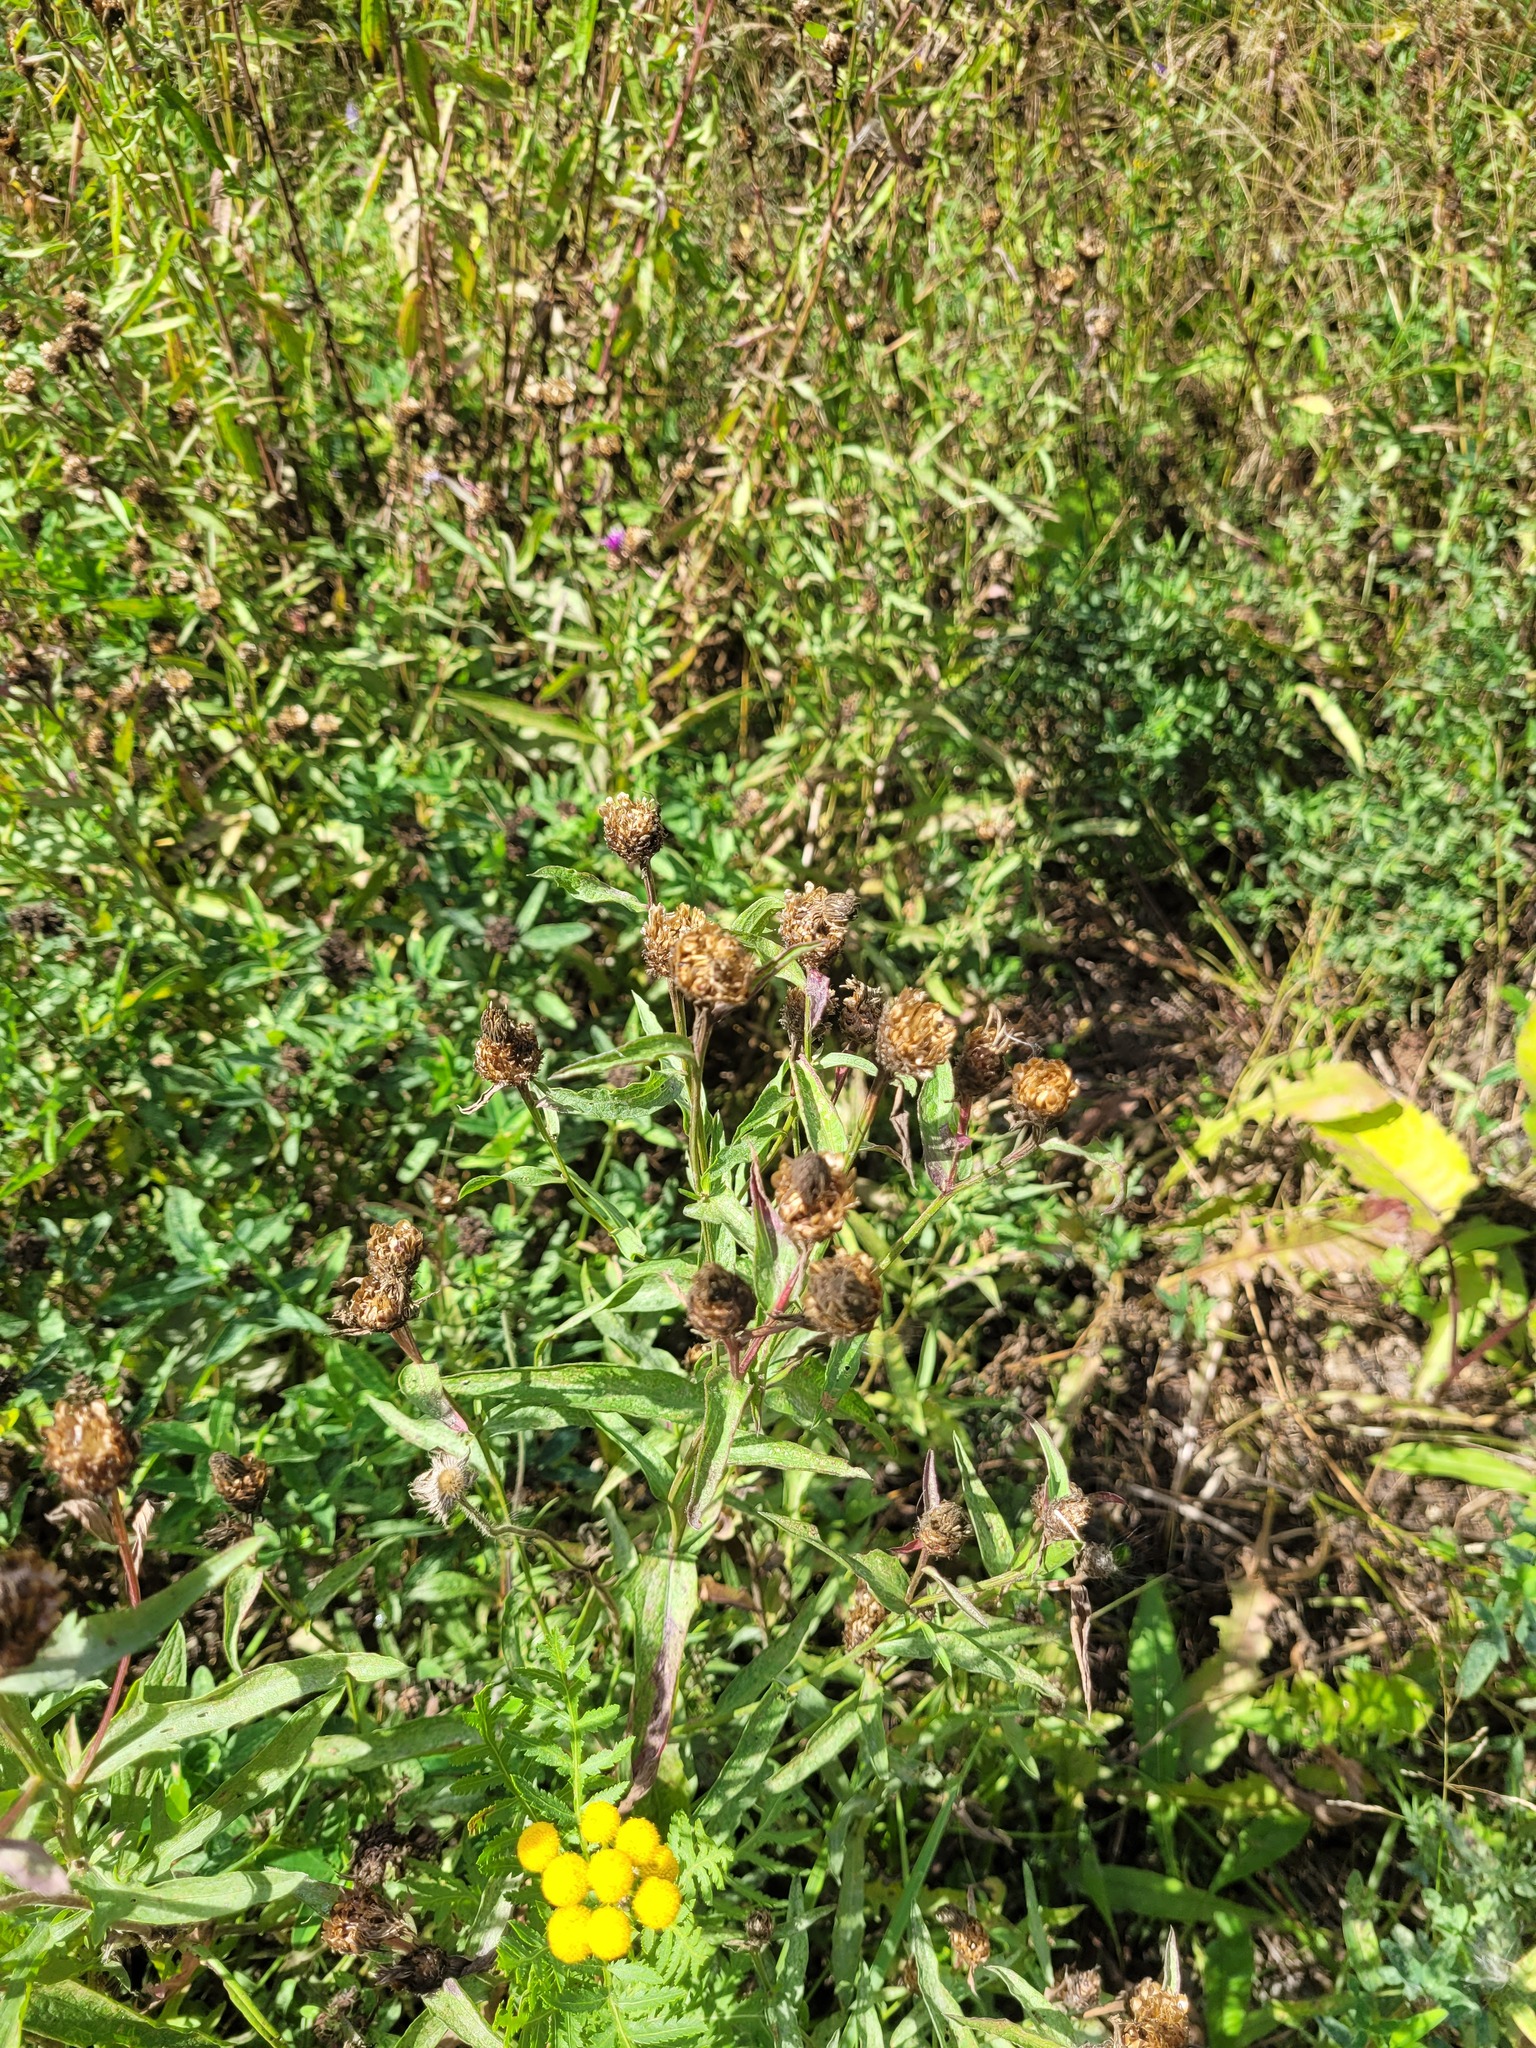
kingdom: Plantae
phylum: Tracheophyta
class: Magnoliopsida
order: Asterales
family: Asteraceae
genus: Centaurea
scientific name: Centaurea jacea
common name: Brown knapweed
